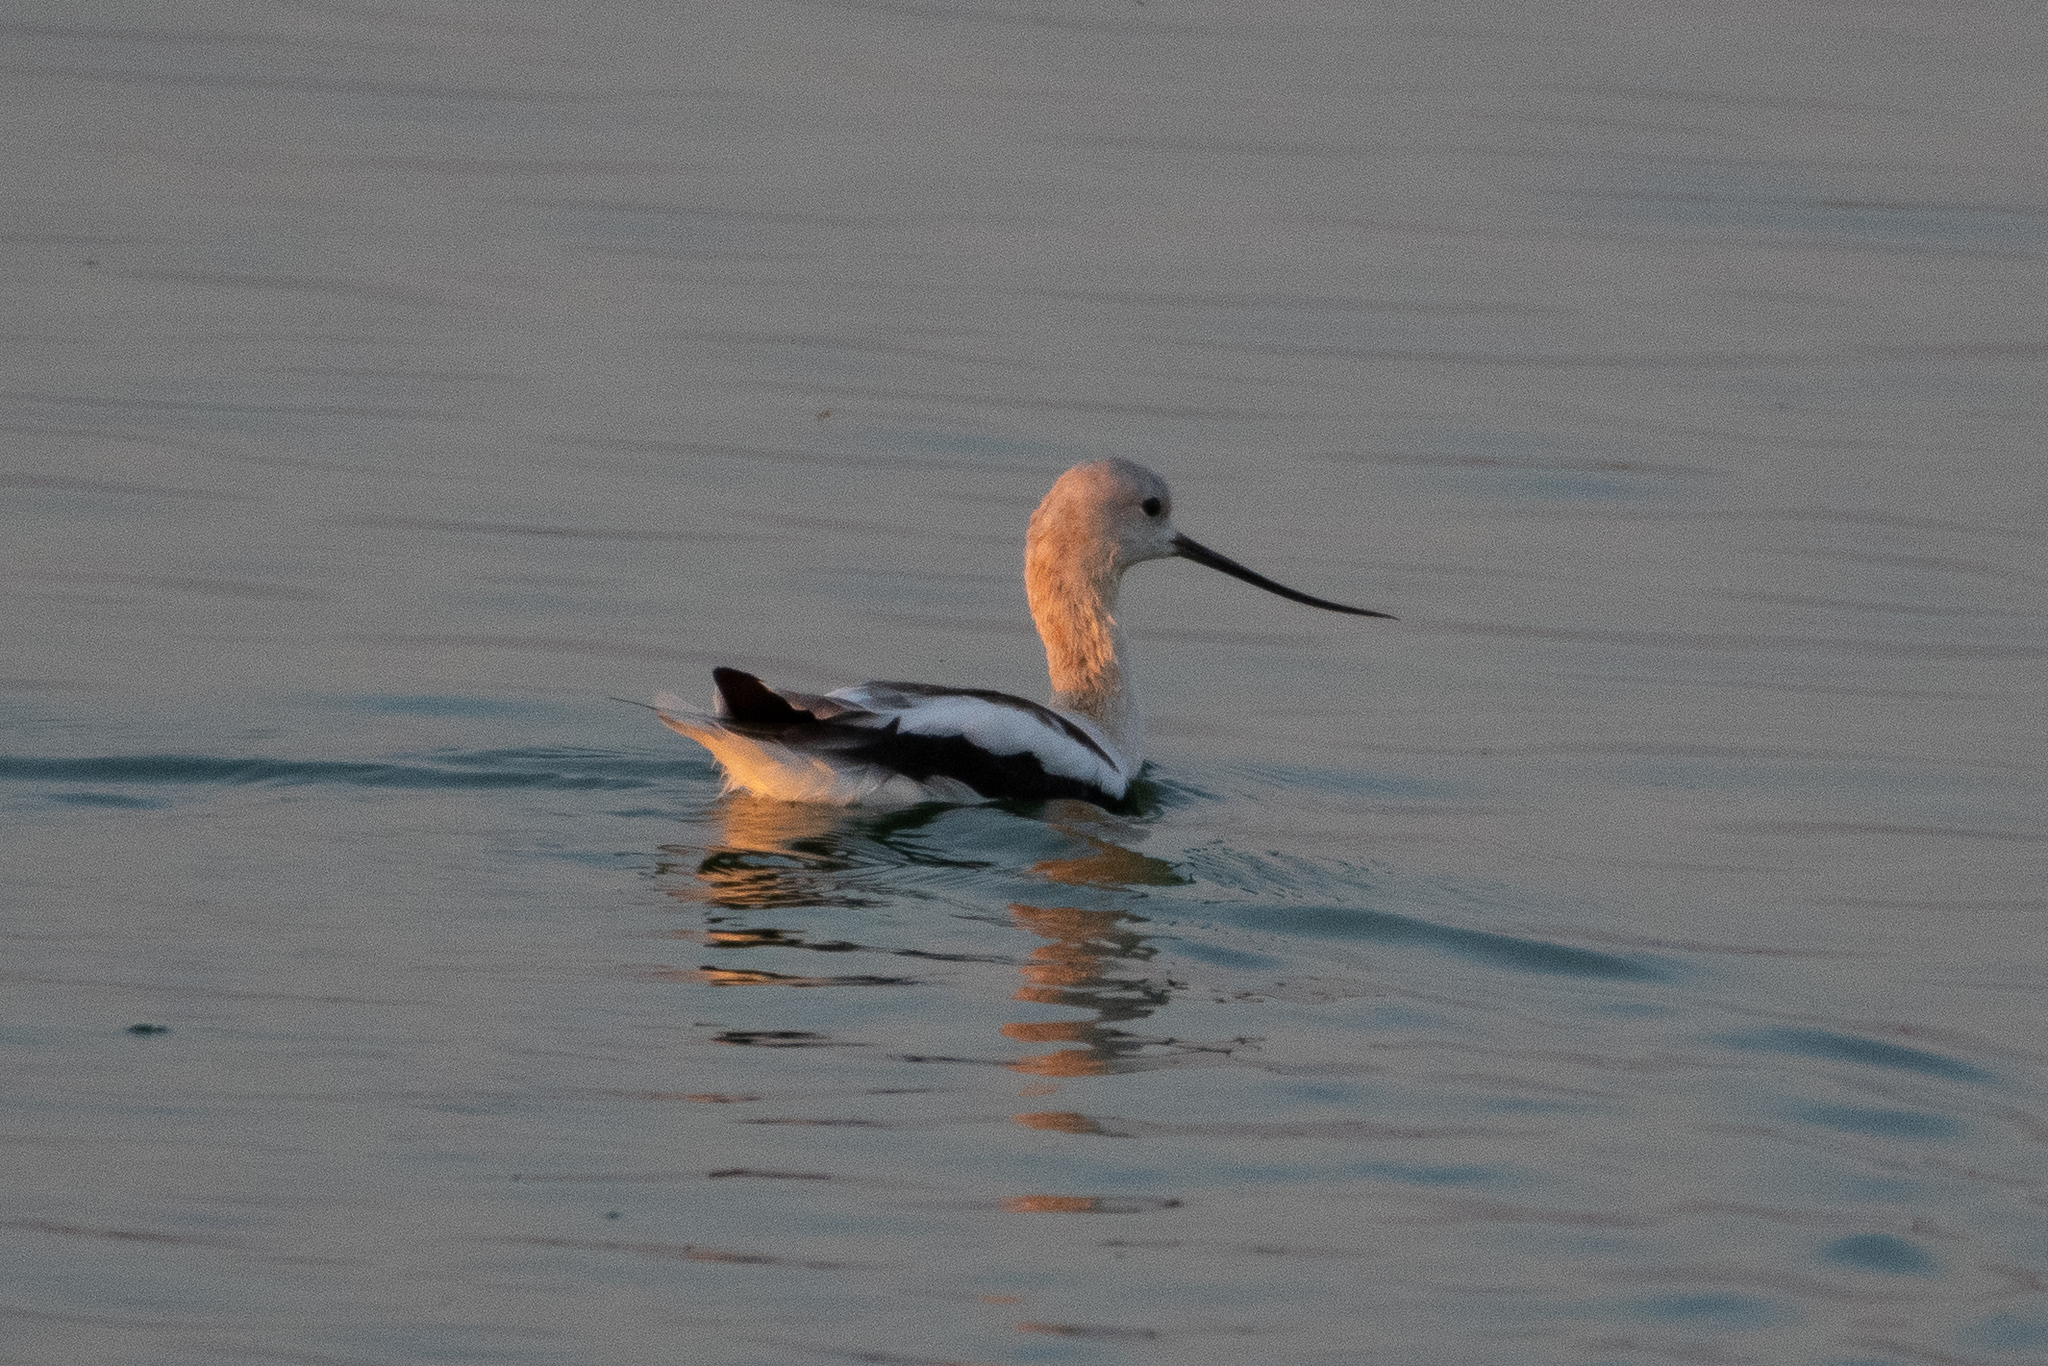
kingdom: Animalia
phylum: Chordata
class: Aves
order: Charadriiformes
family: Recurvirostridae
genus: Recurvirostra
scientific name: Recurvirostra americana
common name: American avocet
